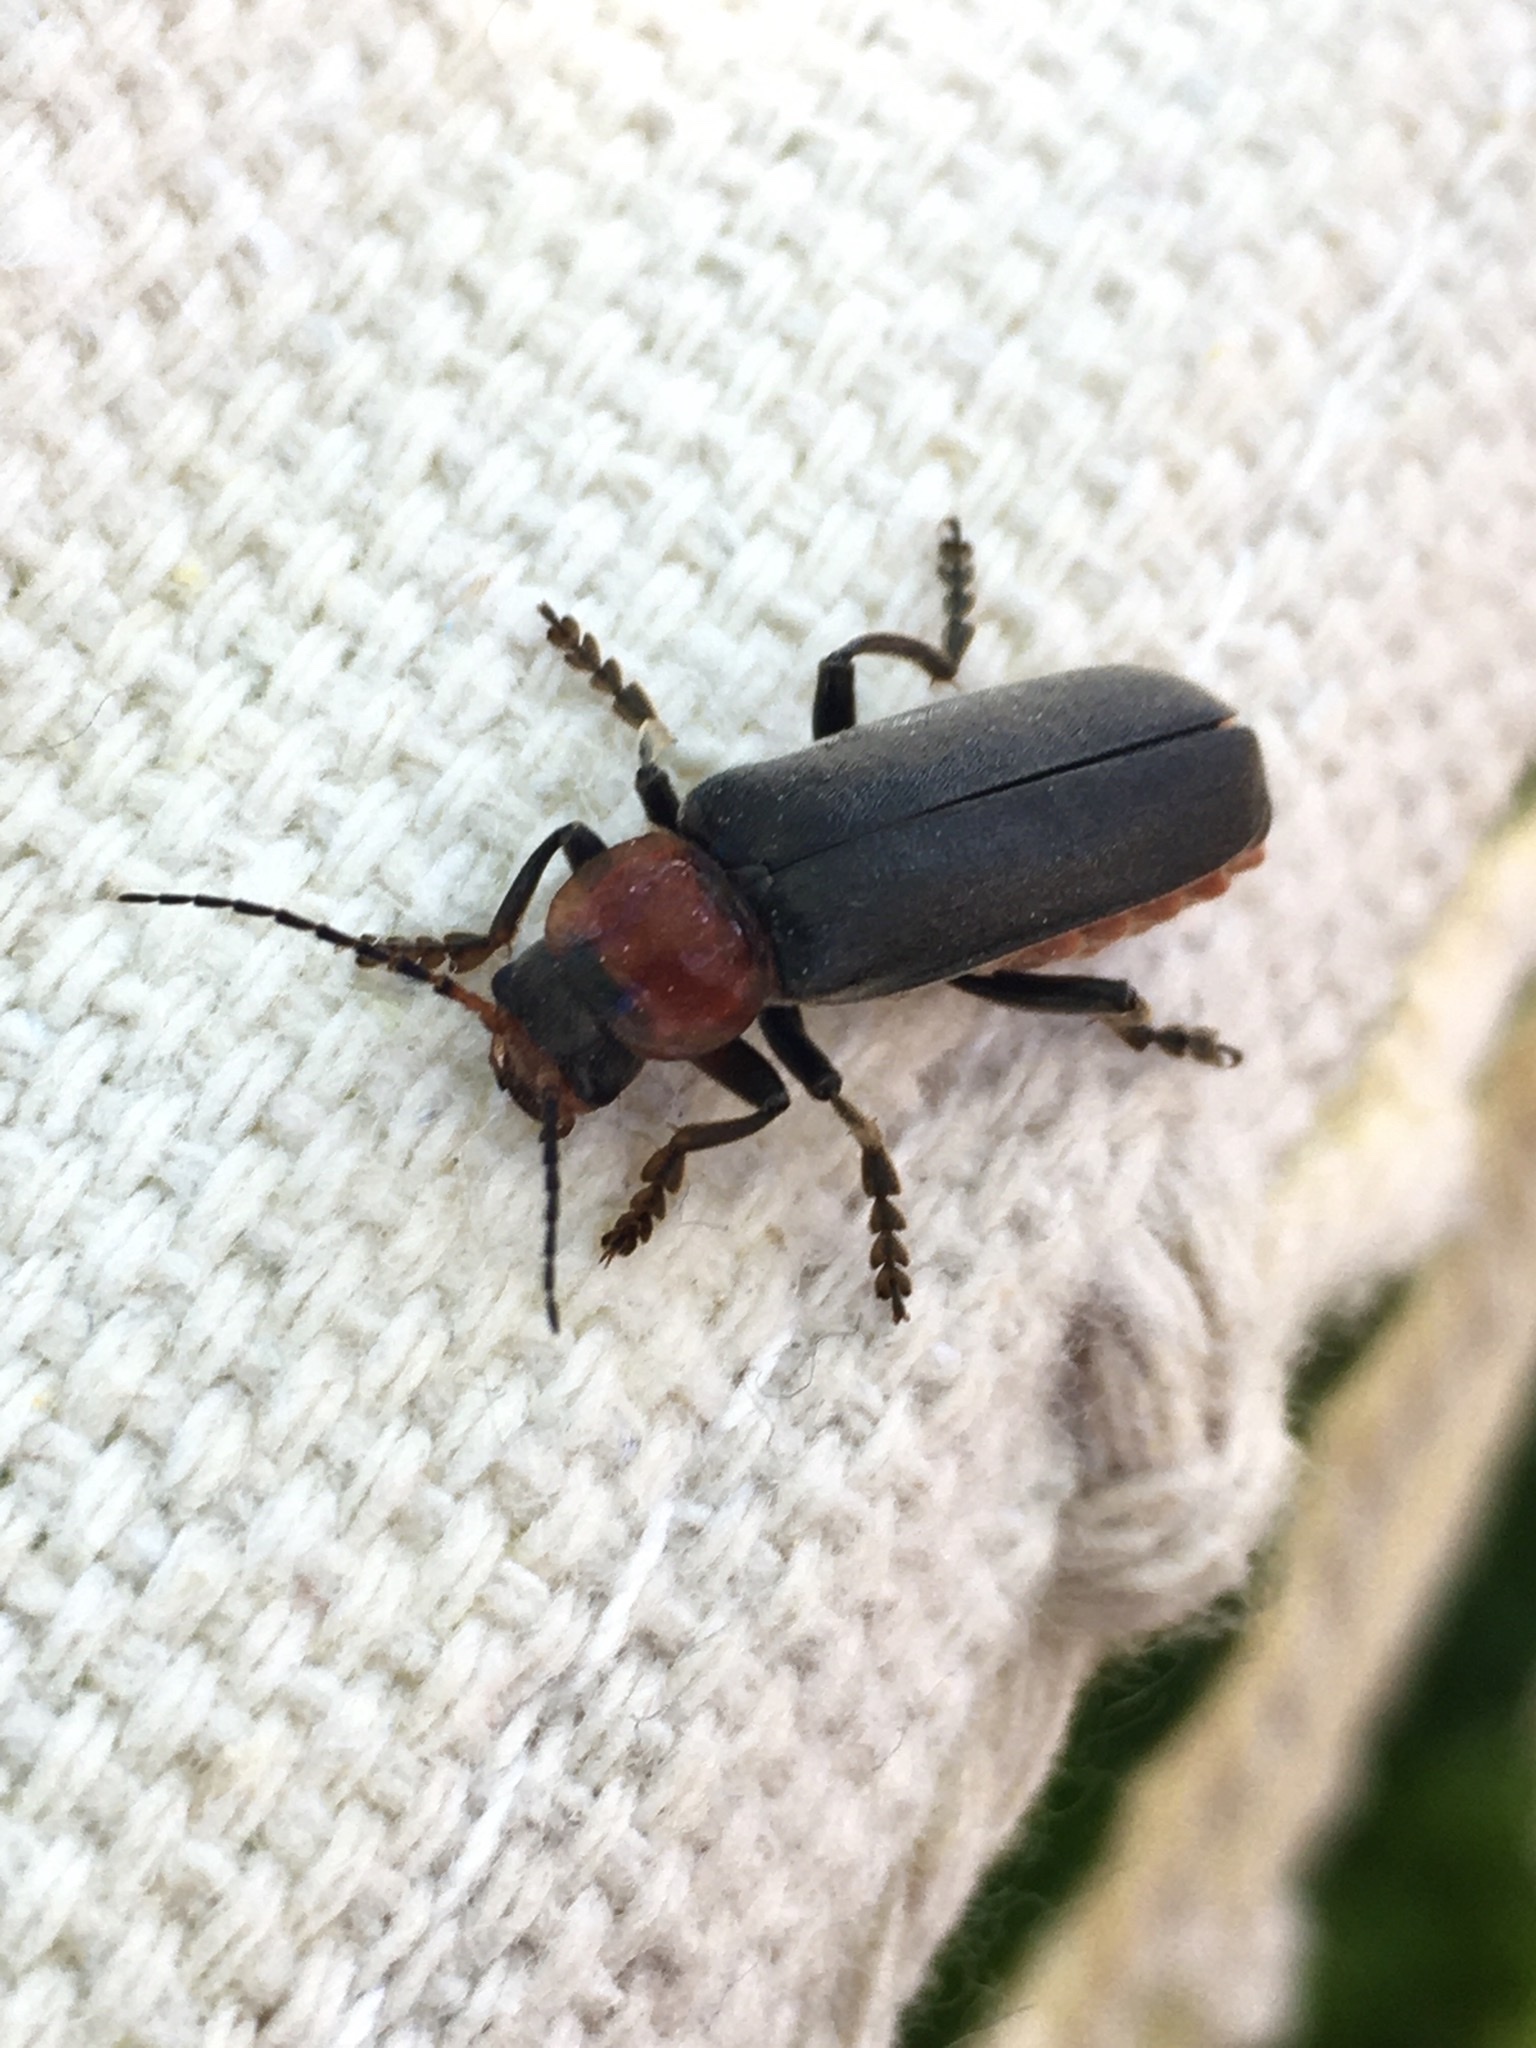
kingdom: Animalia
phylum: Arthropoda
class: Insecta
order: Coleoptera
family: Cantharidae
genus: Cantharis
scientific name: Cantharis fusca
